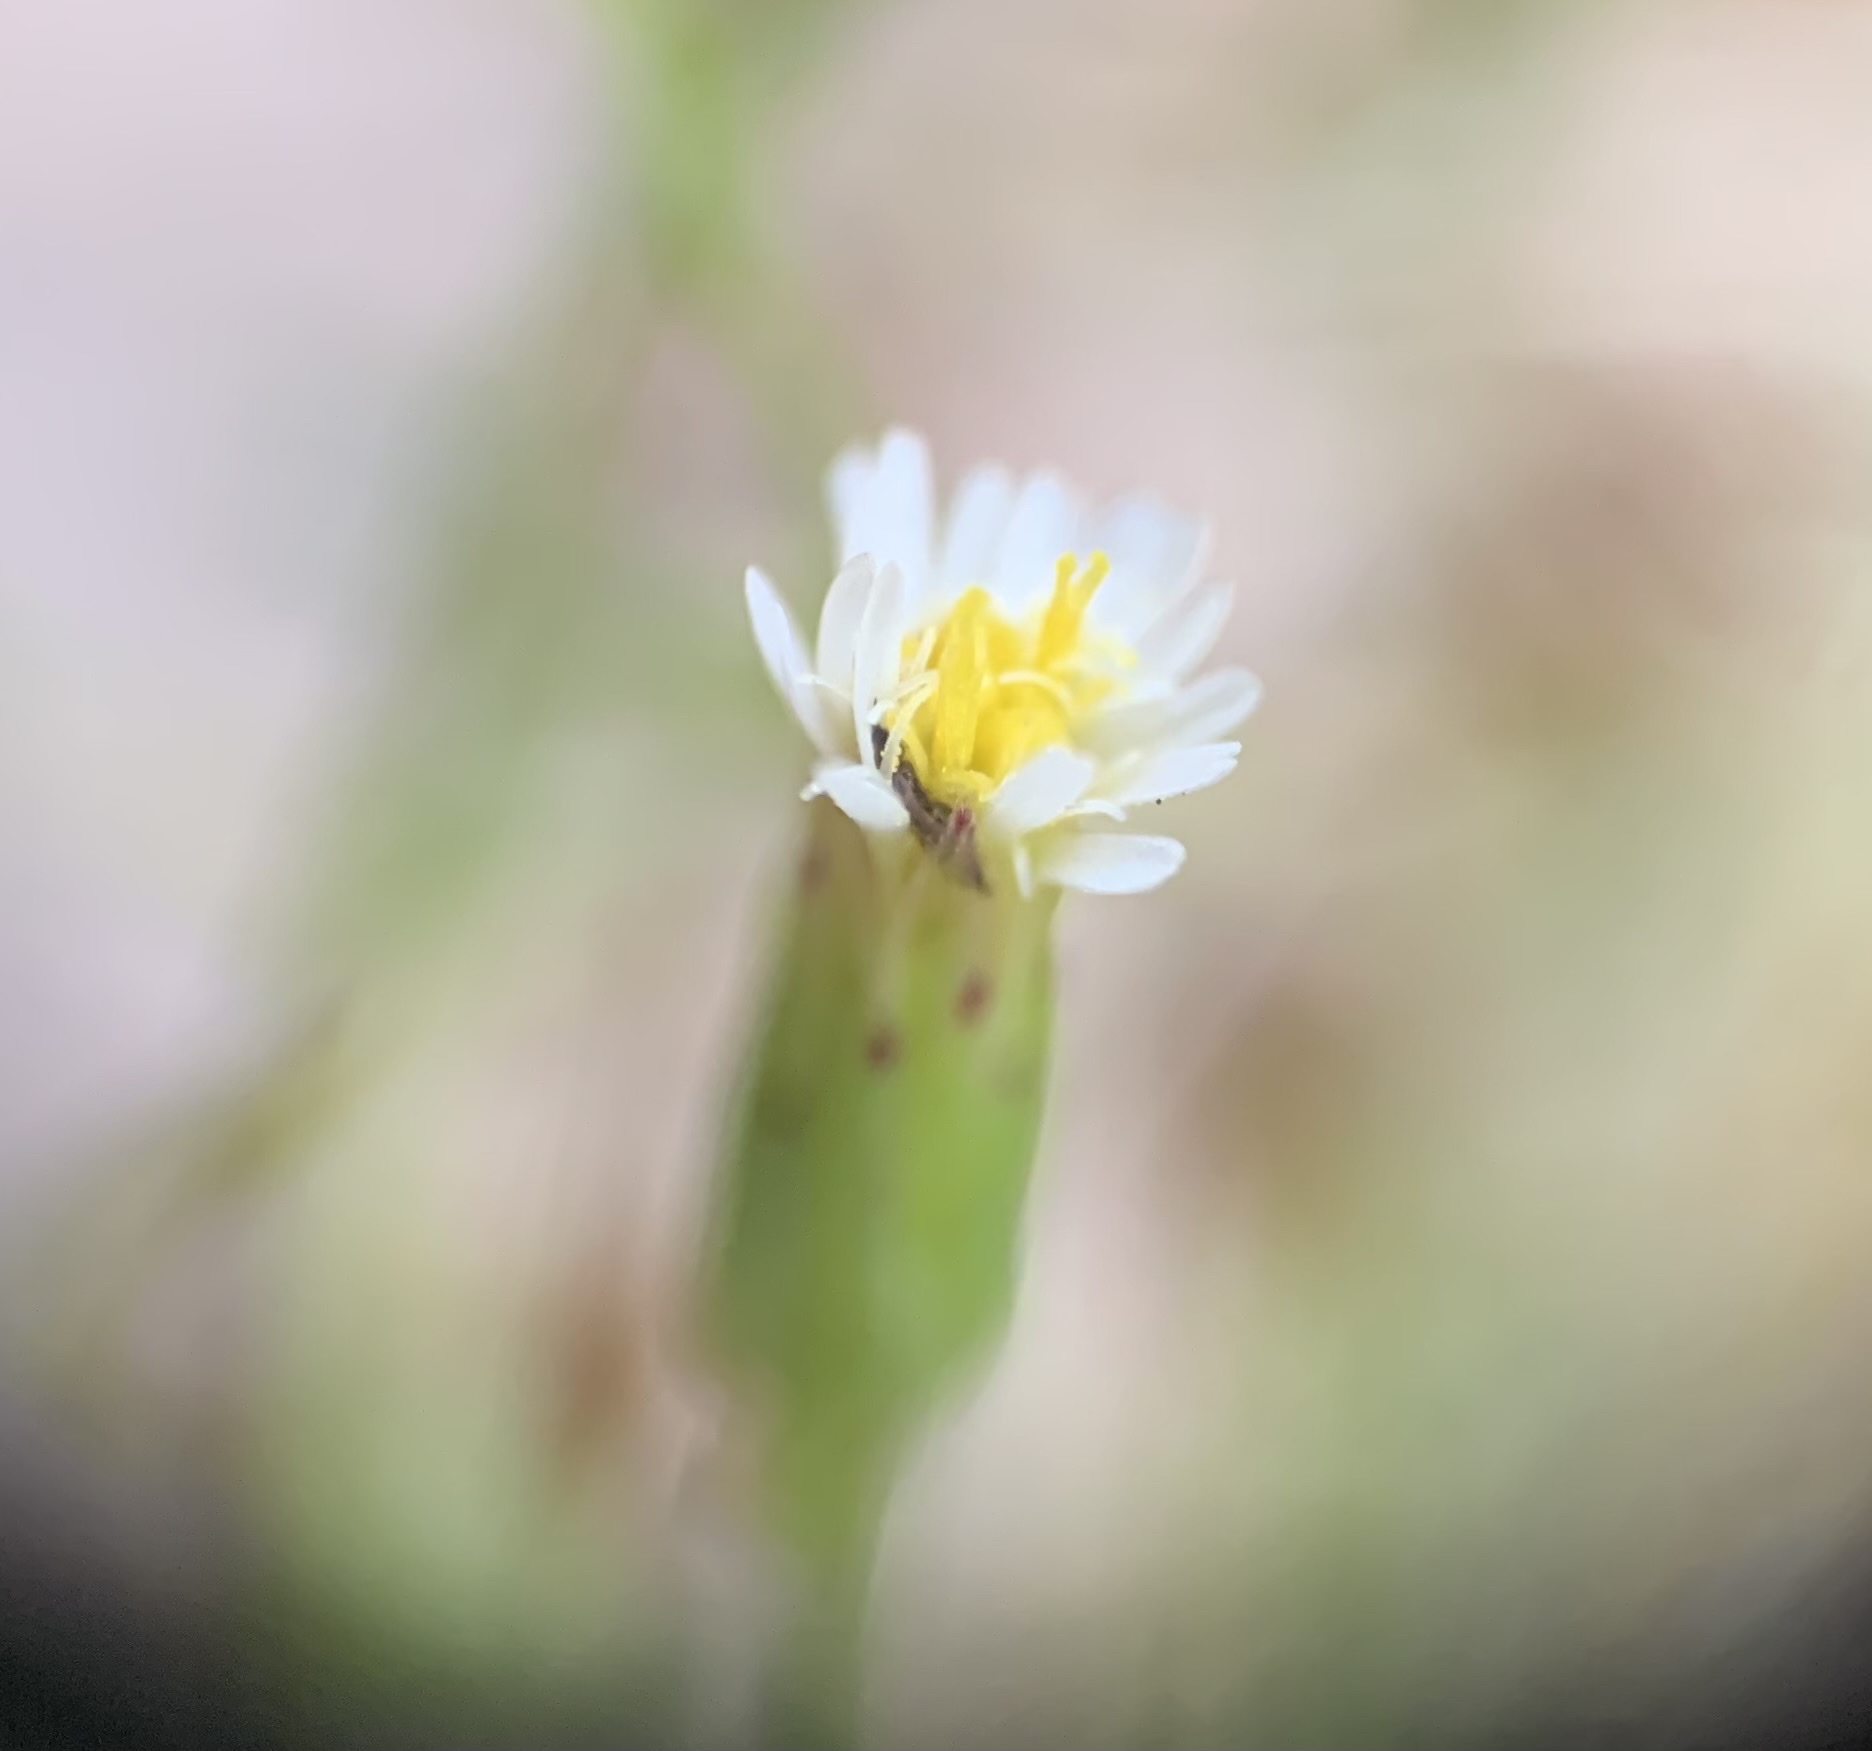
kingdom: Plantae
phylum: Tracheophyta
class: Magnoliopsida
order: Asterales
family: Asteraceae
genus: Erigeron
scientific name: Erigeron canadensis
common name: Canadian fleabane
